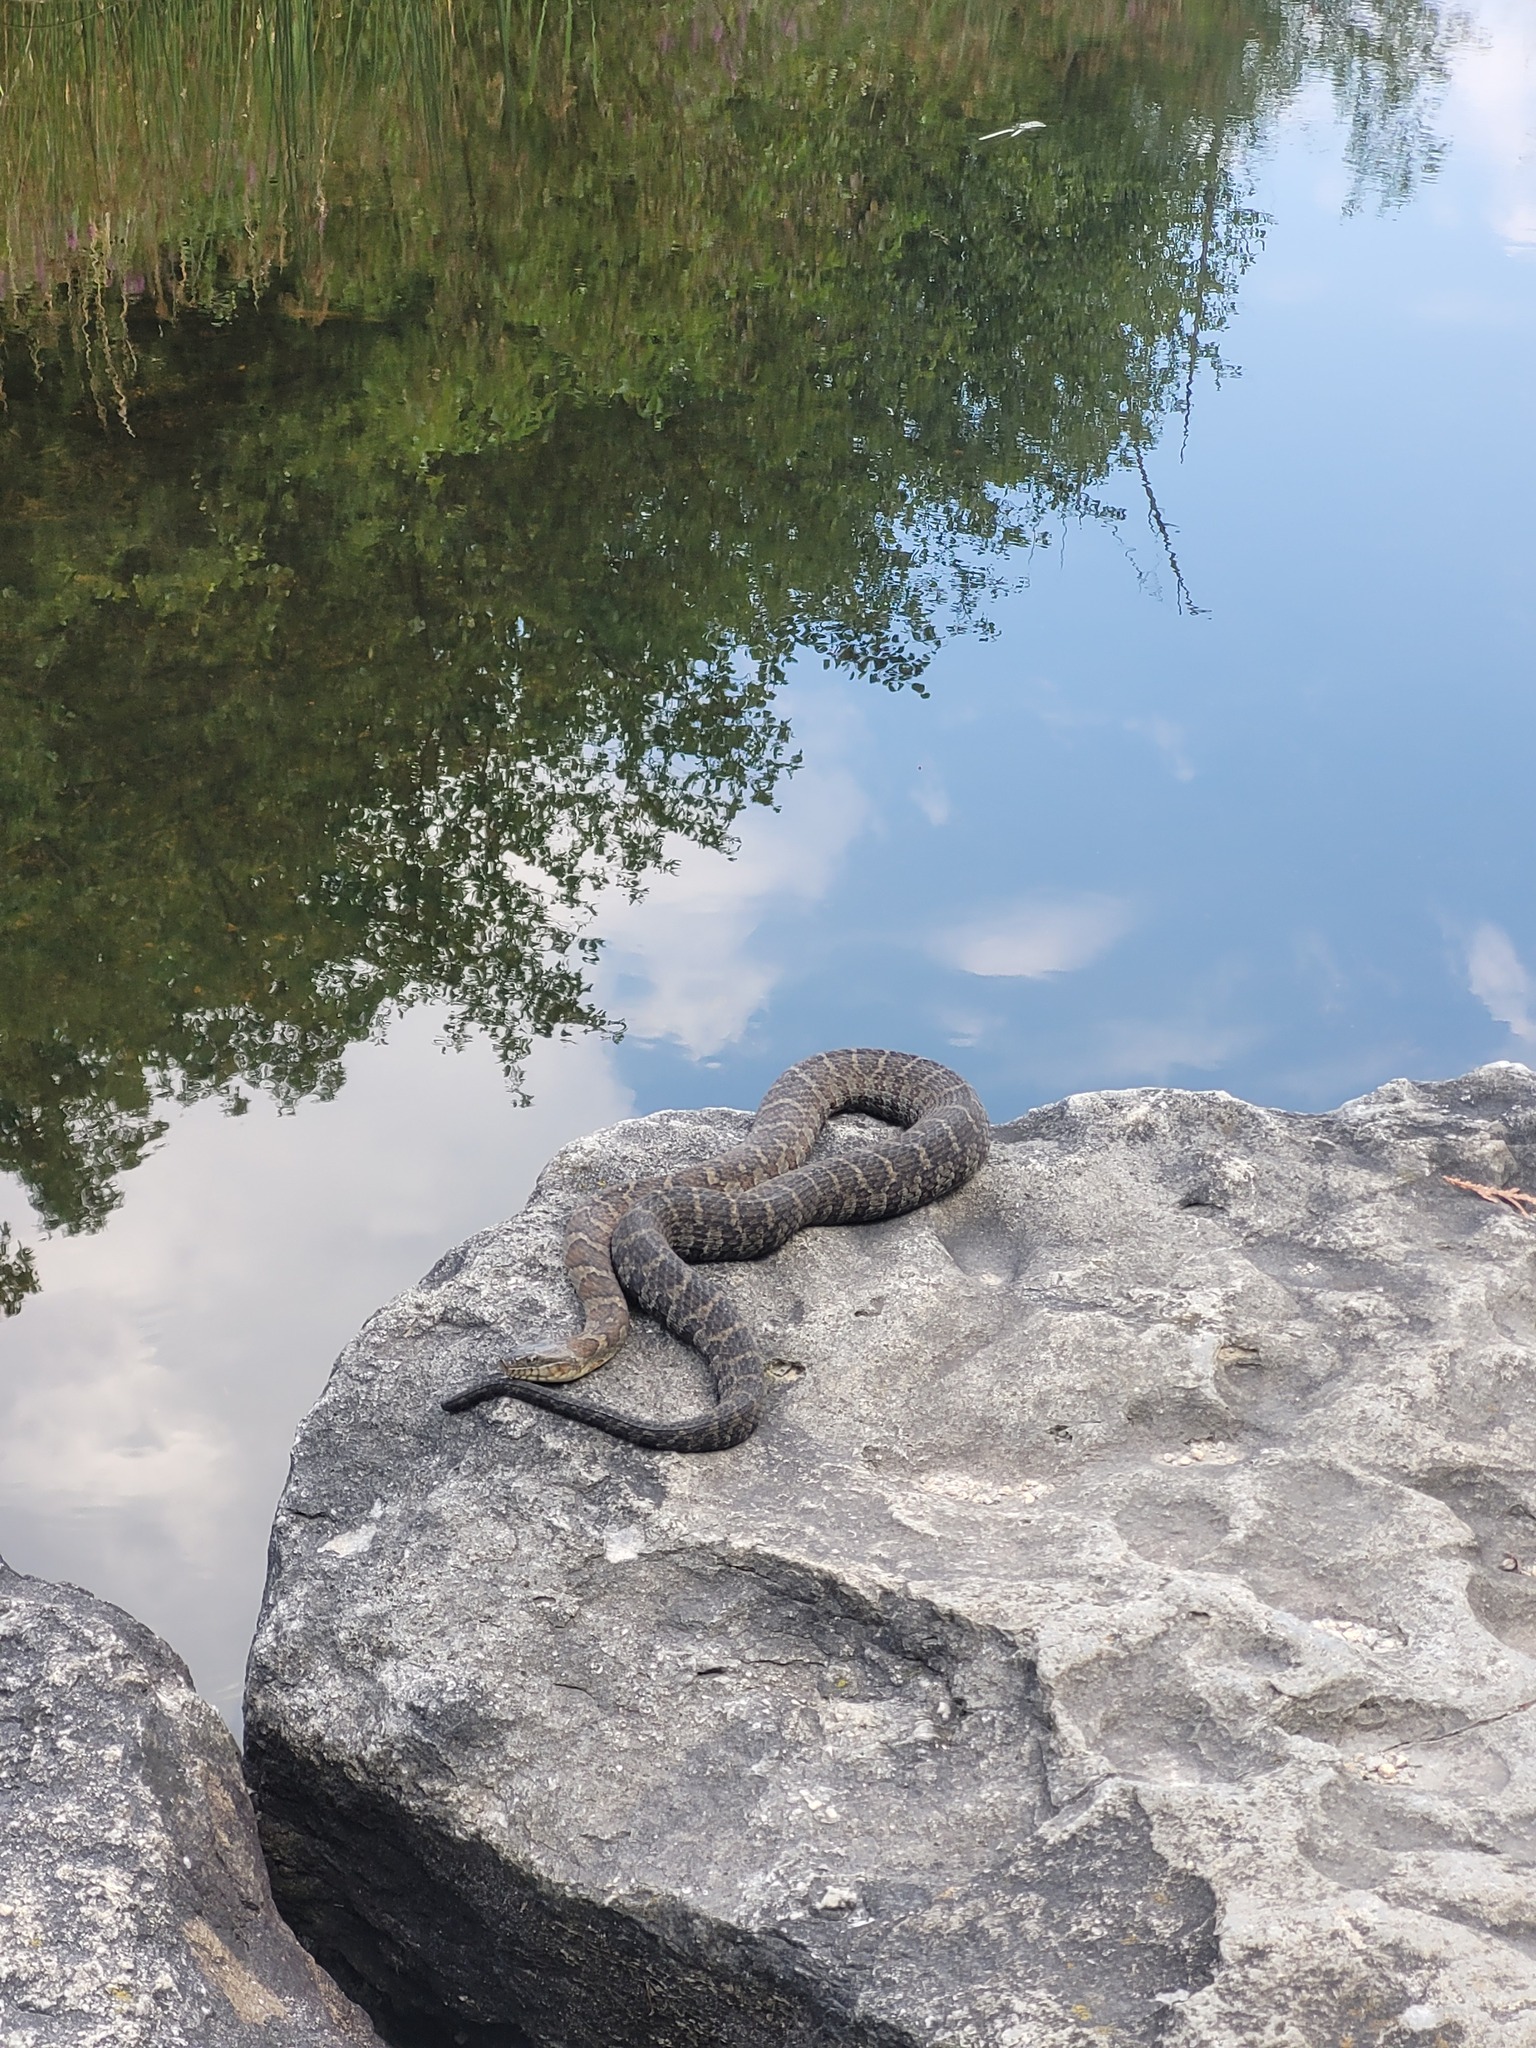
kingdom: Animalia
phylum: Chordata
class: Squamata
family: Colubridae
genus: Nerodia
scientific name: Nerodia sipedon
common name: Northern water snake
